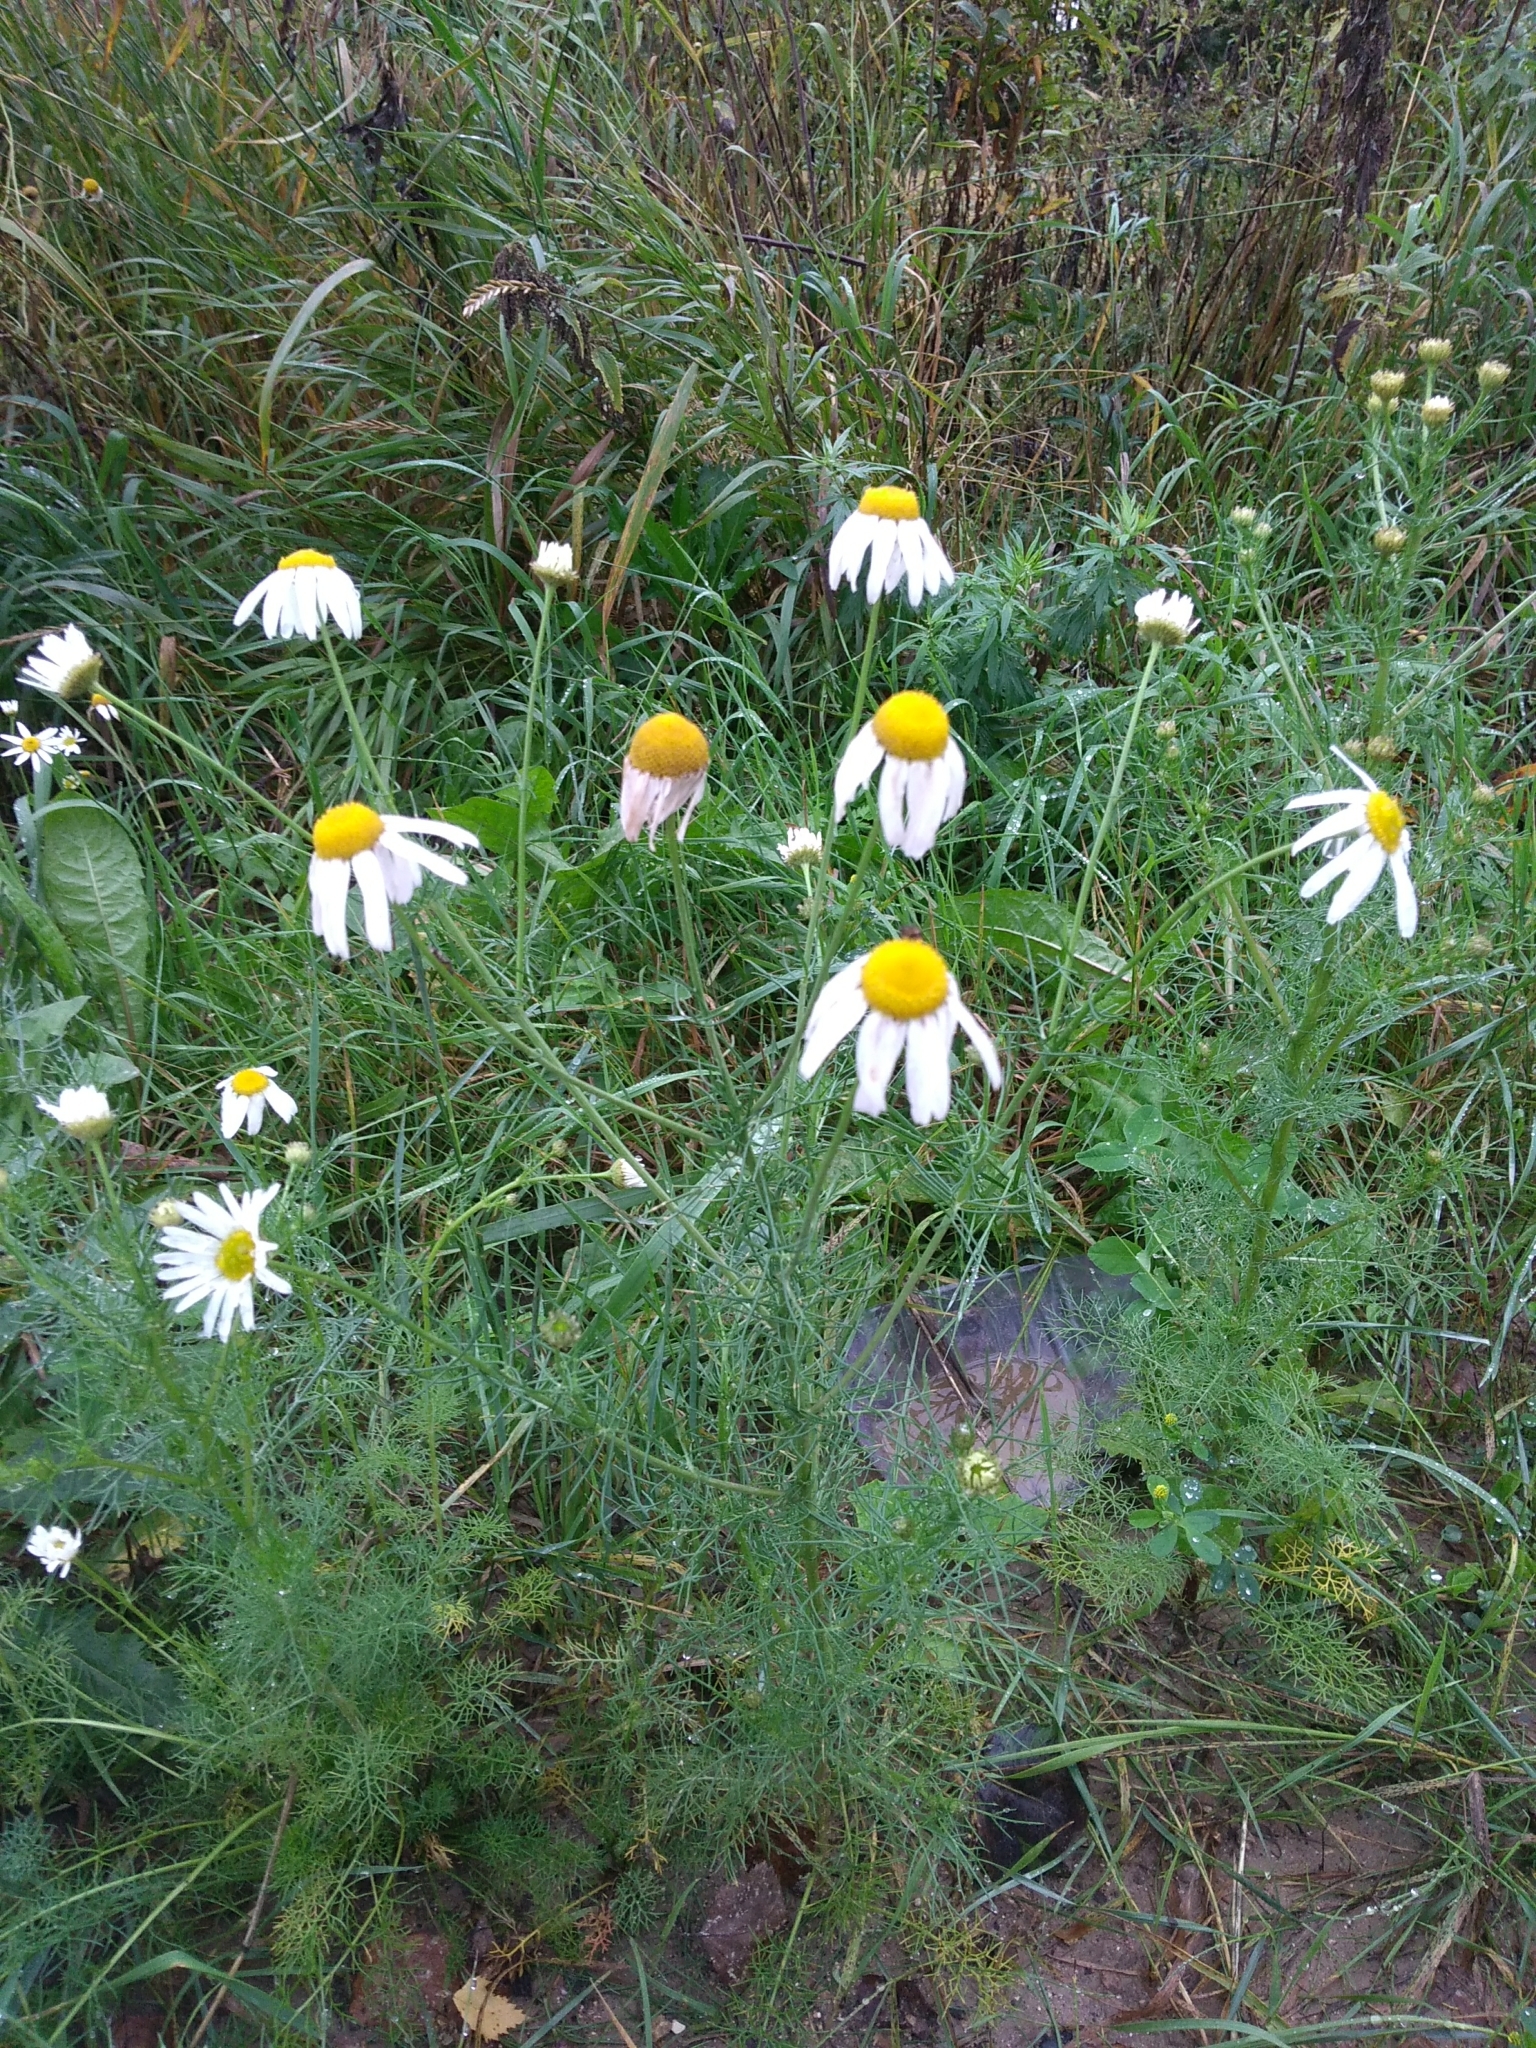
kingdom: Plantae
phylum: Tracheophyta
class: Magnoliopsida
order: Asterales
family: Asteraceae
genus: Tripleurospermum
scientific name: Tripleurospermum inodorum
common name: Scentless mayweed
